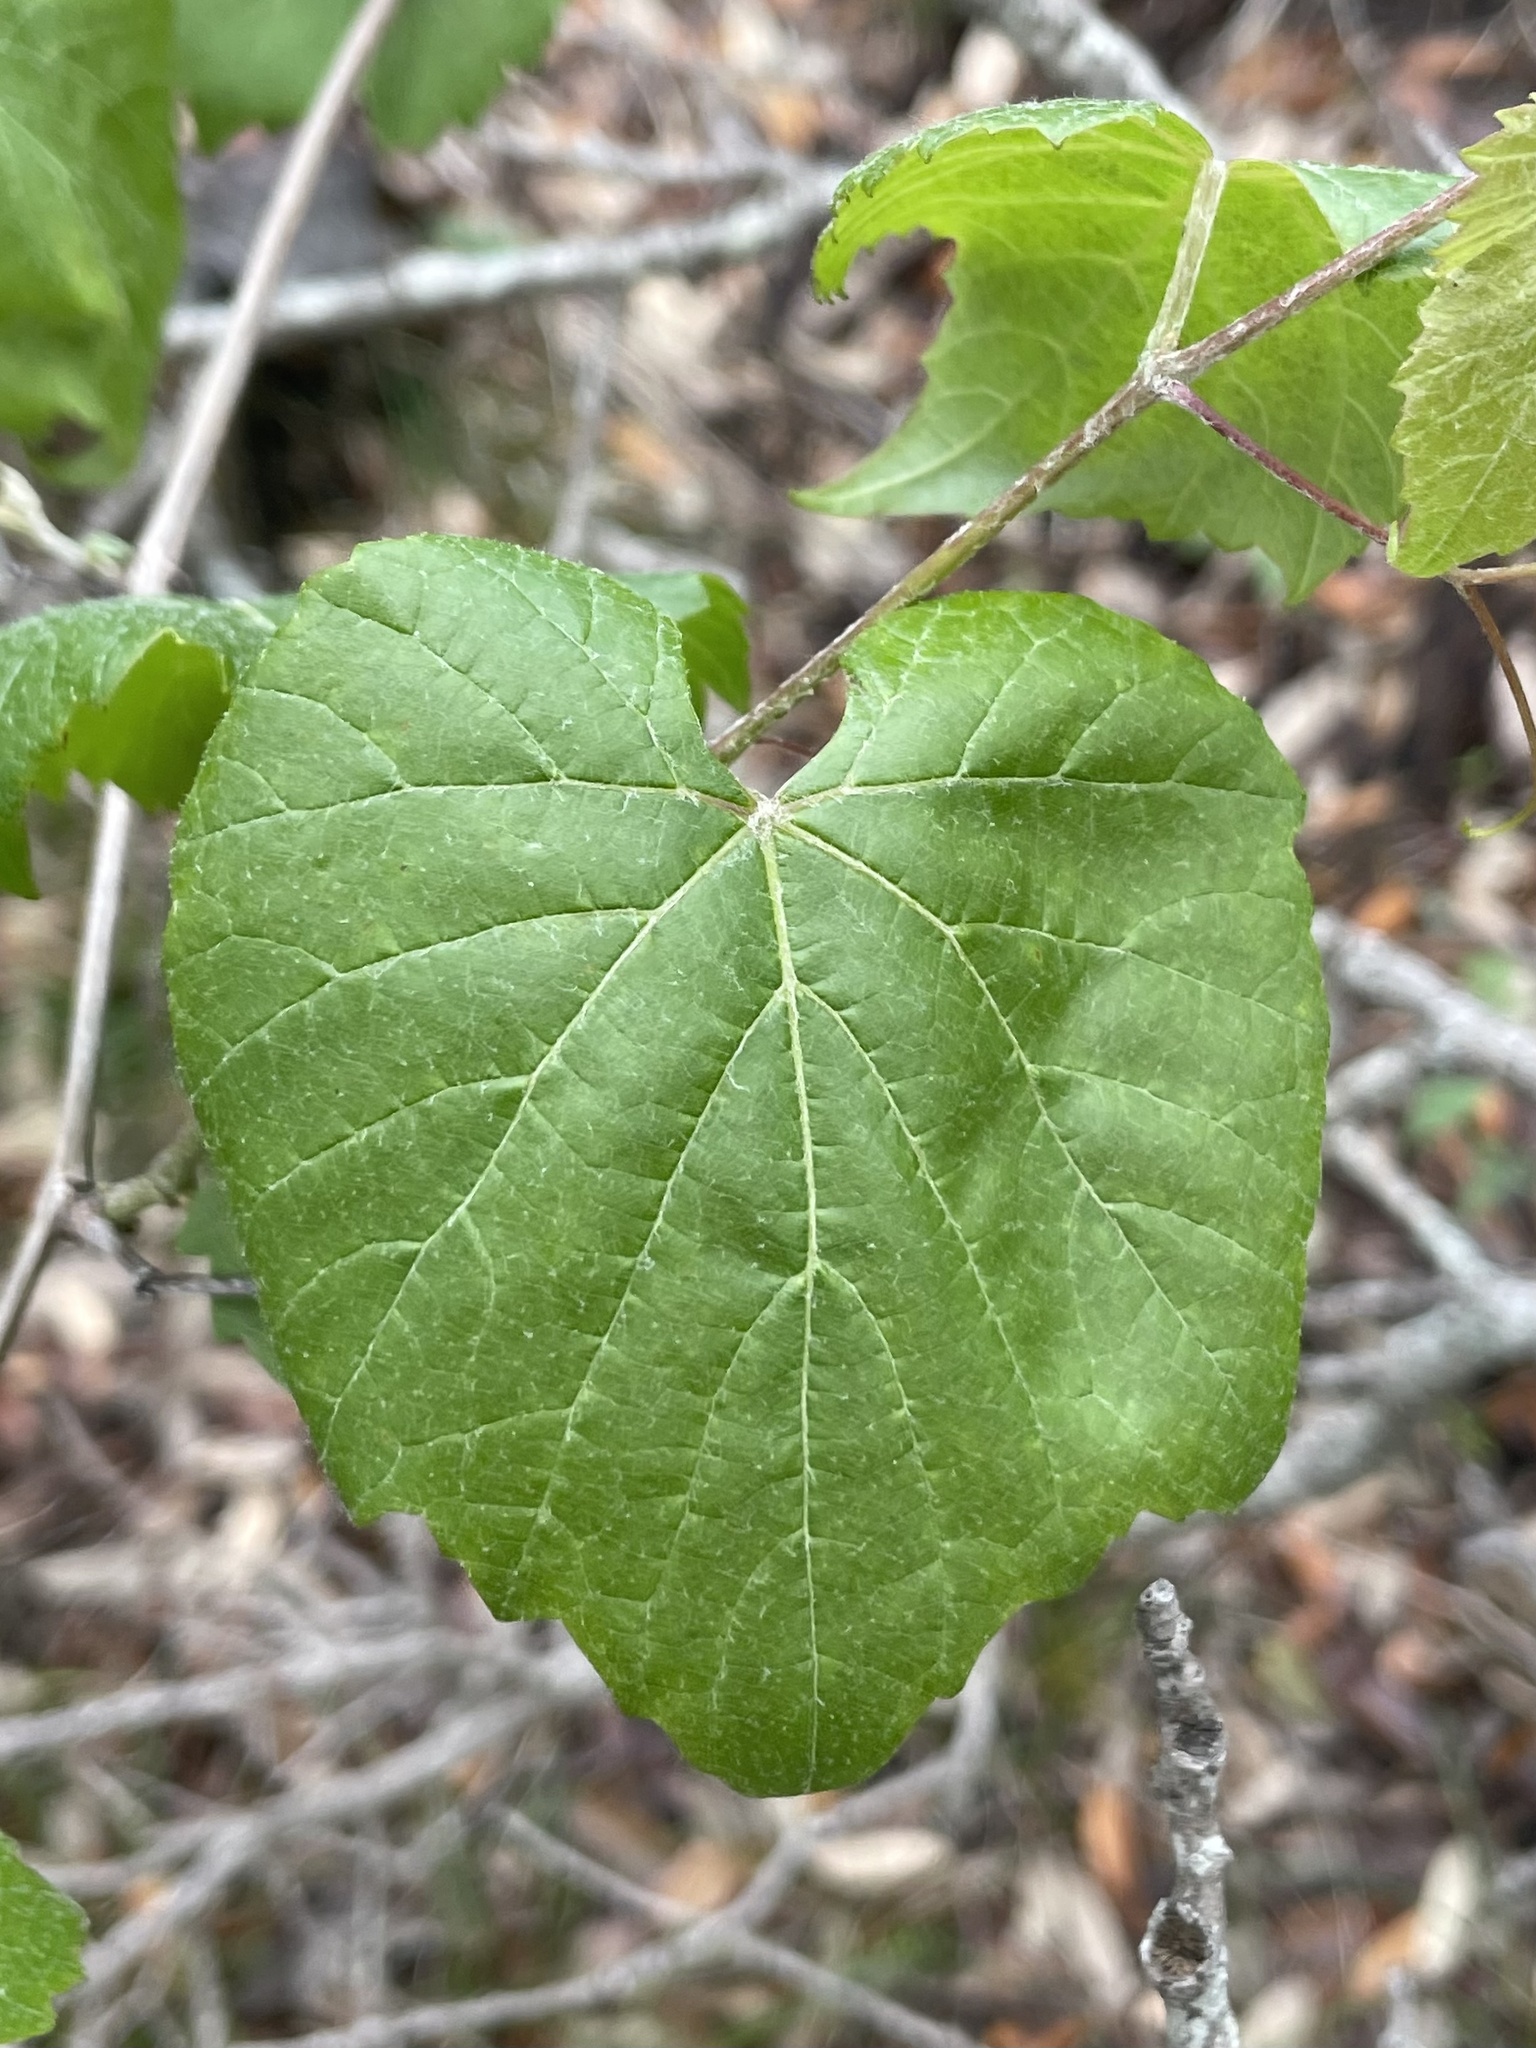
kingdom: Plantae
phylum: Tracheophyta
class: Magnoliopsida
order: Vitales
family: Vitaceae
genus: Vitis
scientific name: Vitis mustangensis
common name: Mustang grape
